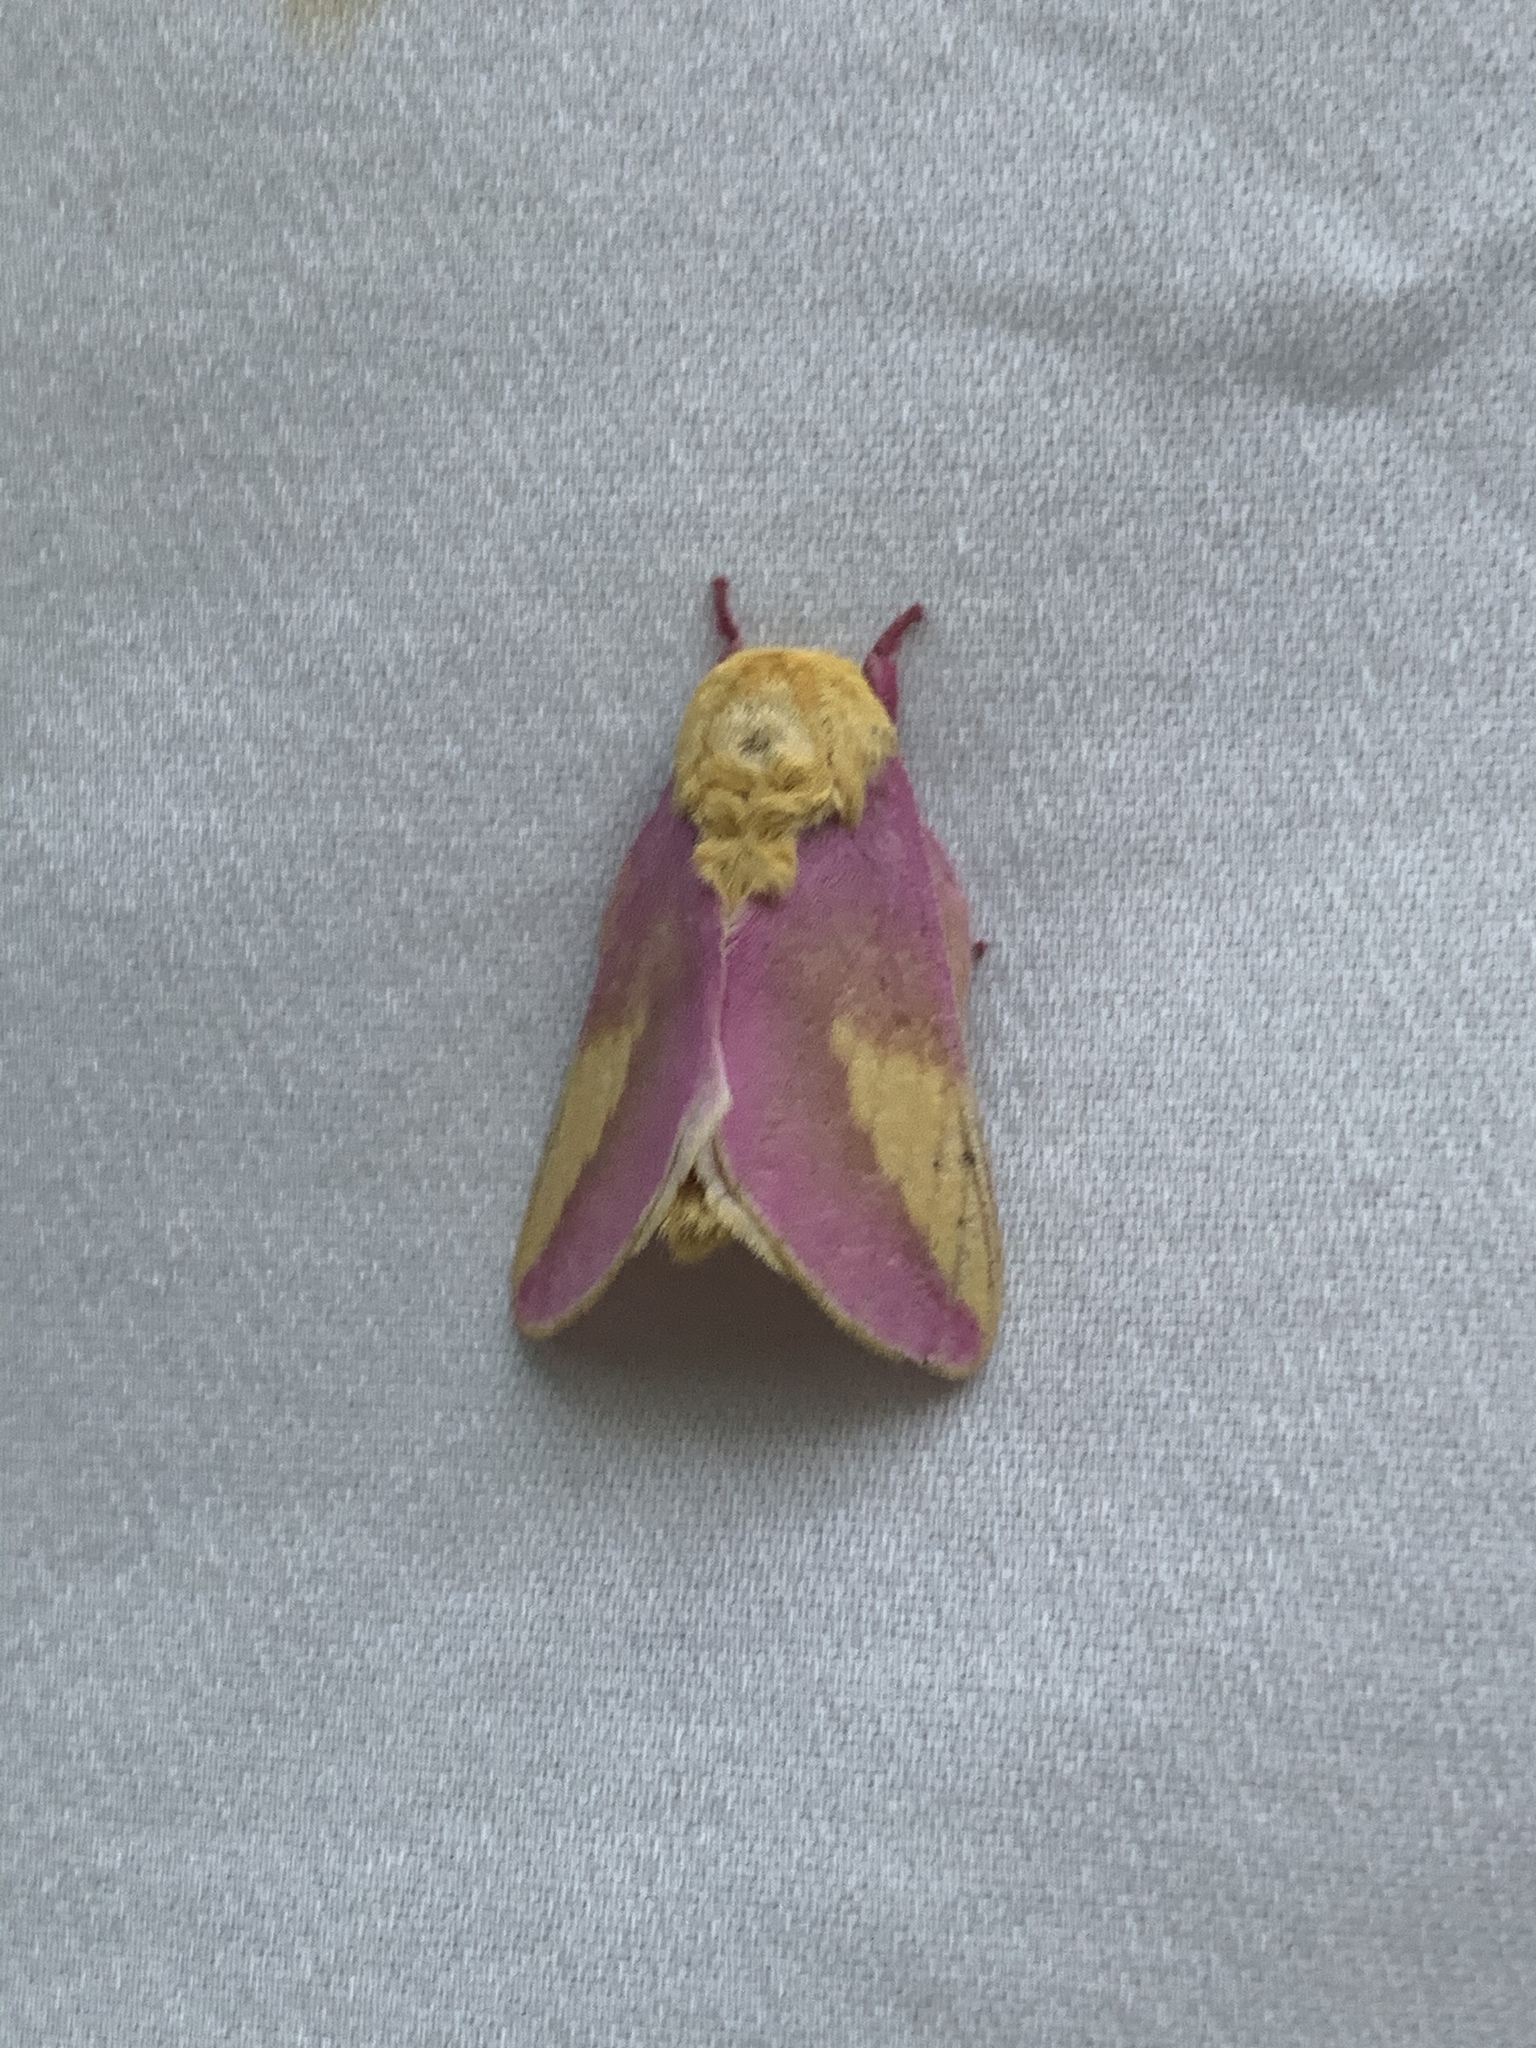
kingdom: Animalia
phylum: Arthropoda
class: Insecta
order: Lepidoptera
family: Saturniidae
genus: Dryocampa
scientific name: Dryocampa rubicunda
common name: Rosy maple moth
